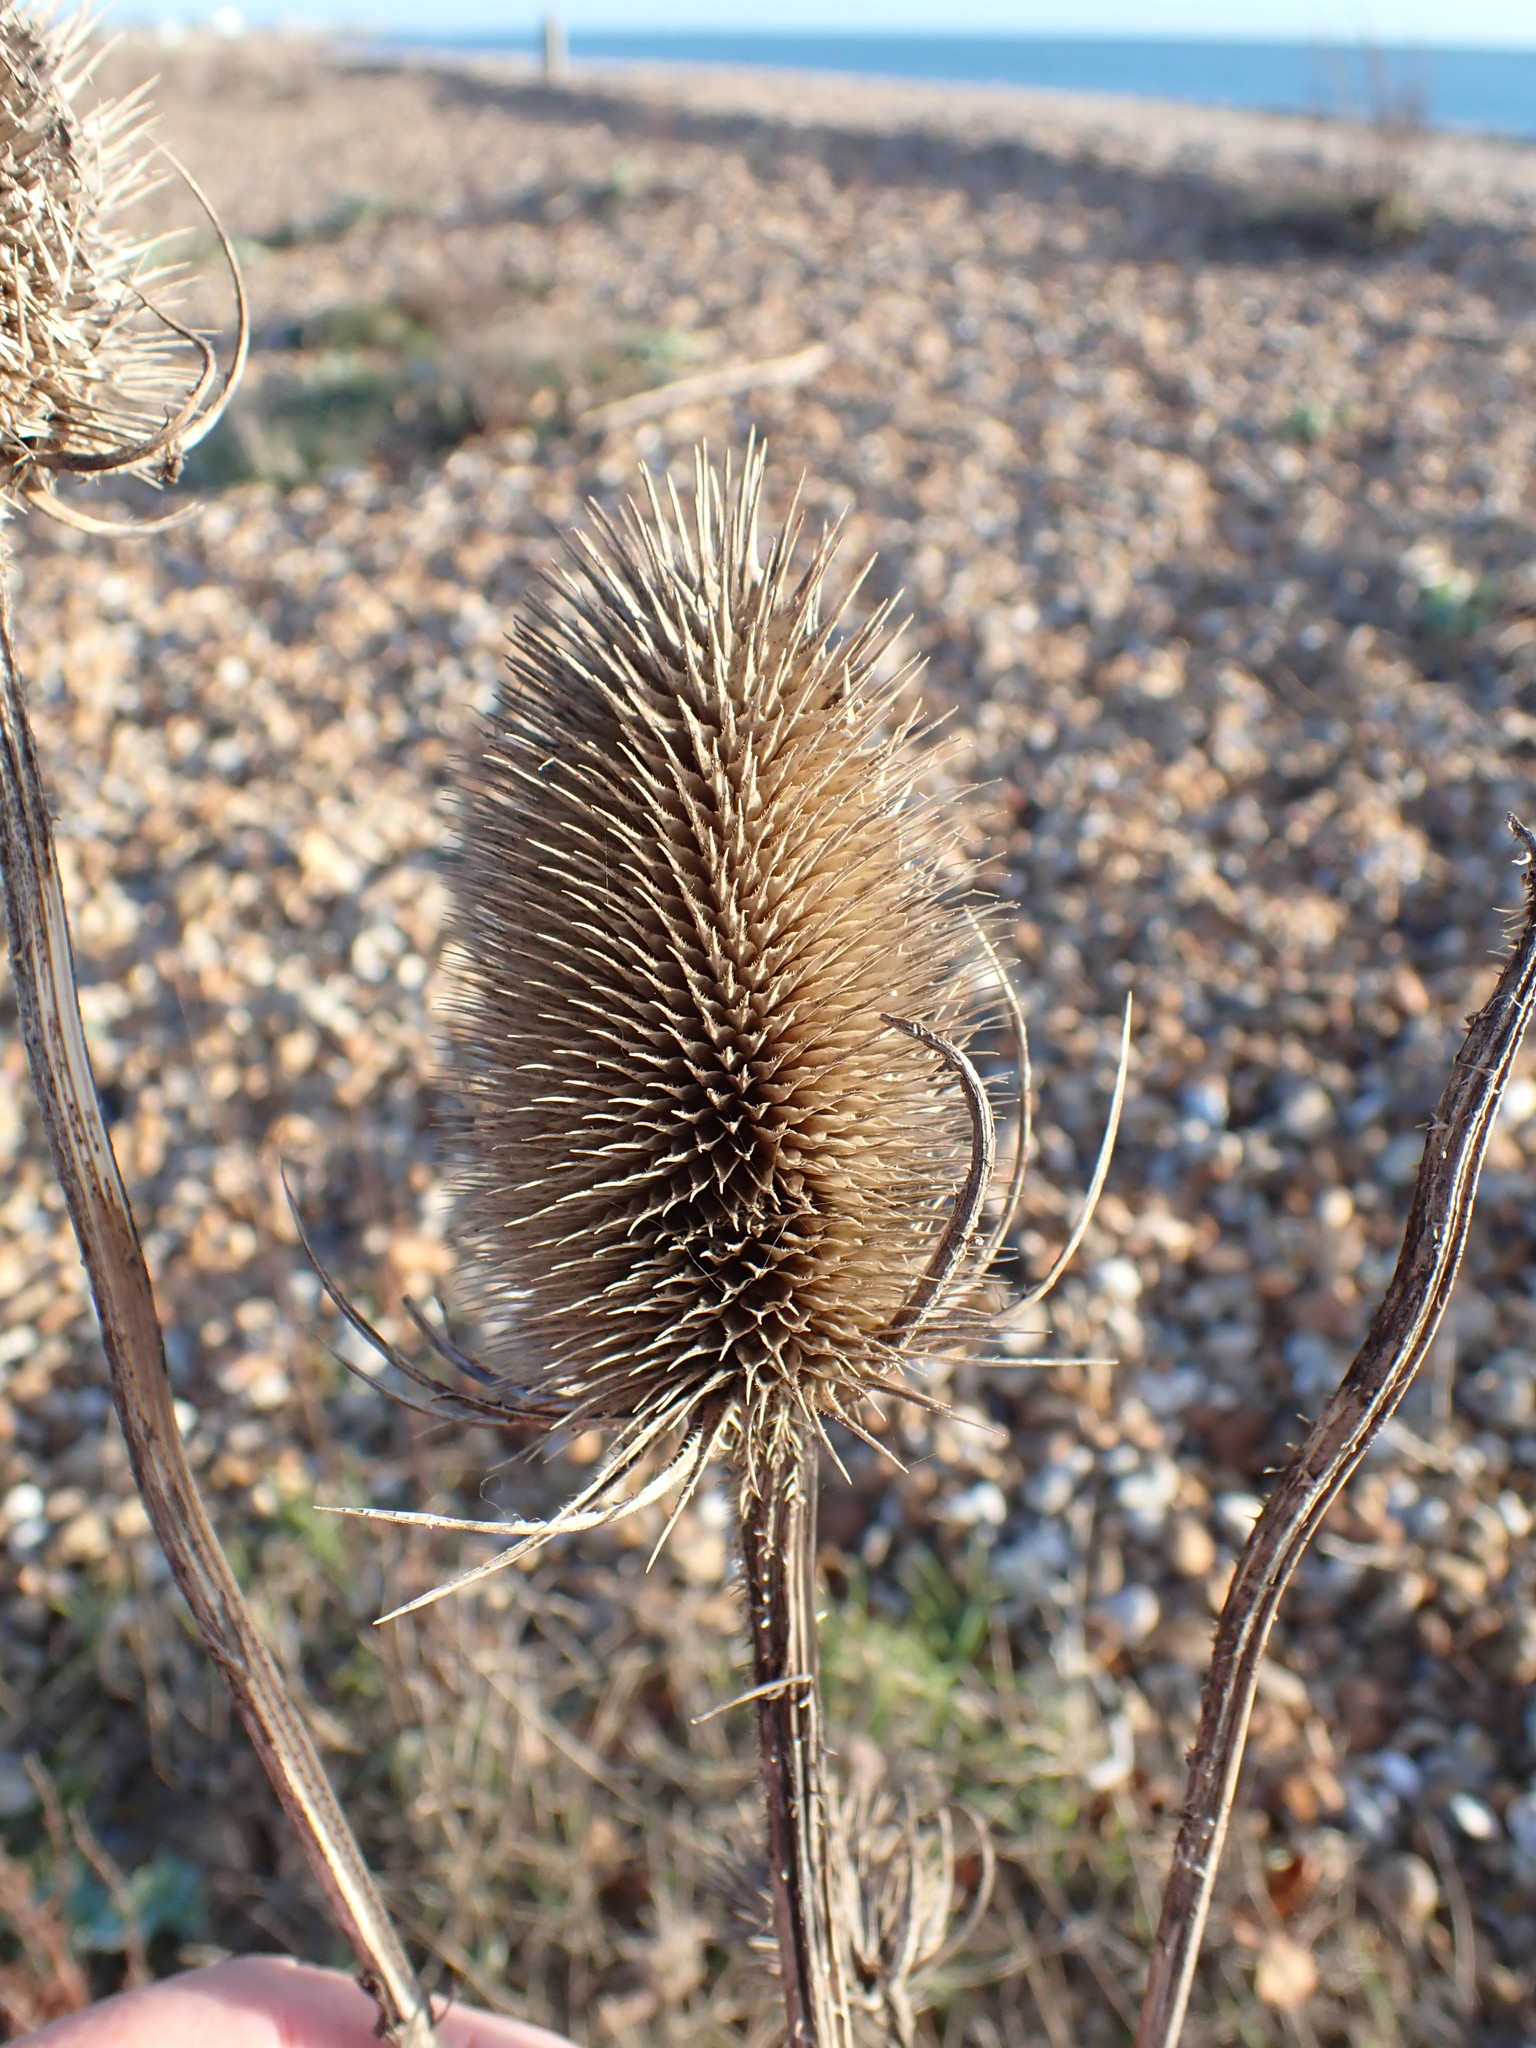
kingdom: Plantae
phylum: Tracheophyta
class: Magnoliopsida
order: Dipsacales
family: Caprifoliaceae
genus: Dipsacus
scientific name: Dipsacus fullonum
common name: Teasel
